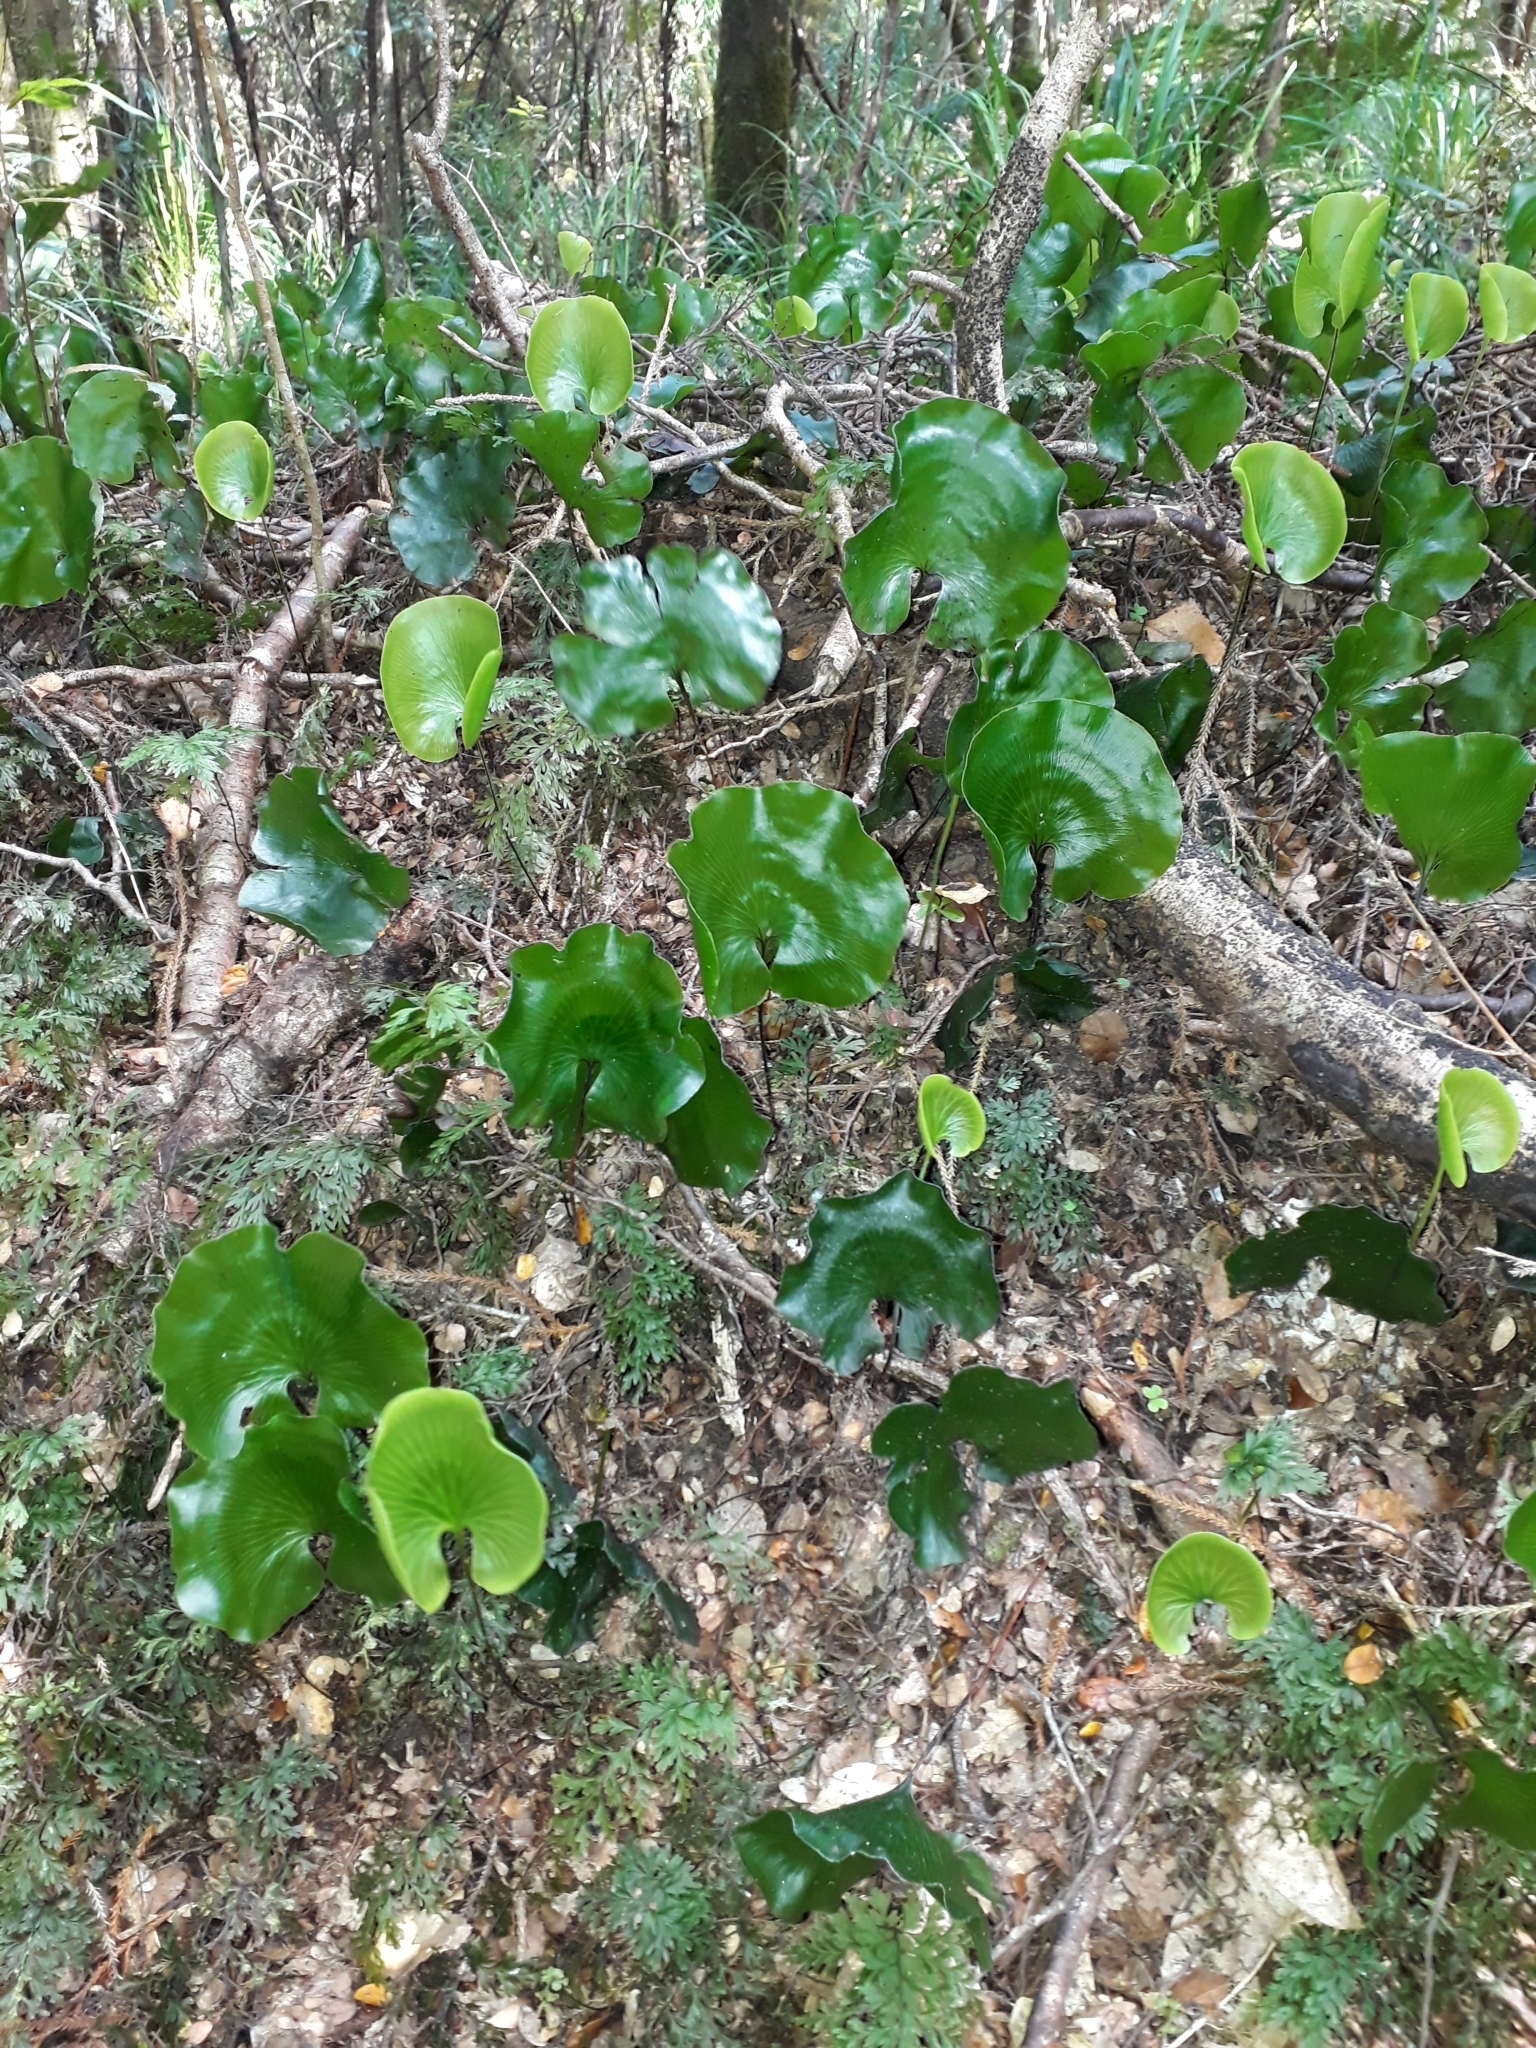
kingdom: Plantae
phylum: Tracheophyta
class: Polypodiopsida
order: Hymenophyllales
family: Hymenophyllaceae
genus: Hymenophyllum
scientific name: Hymenophyllum nephrophyllum
